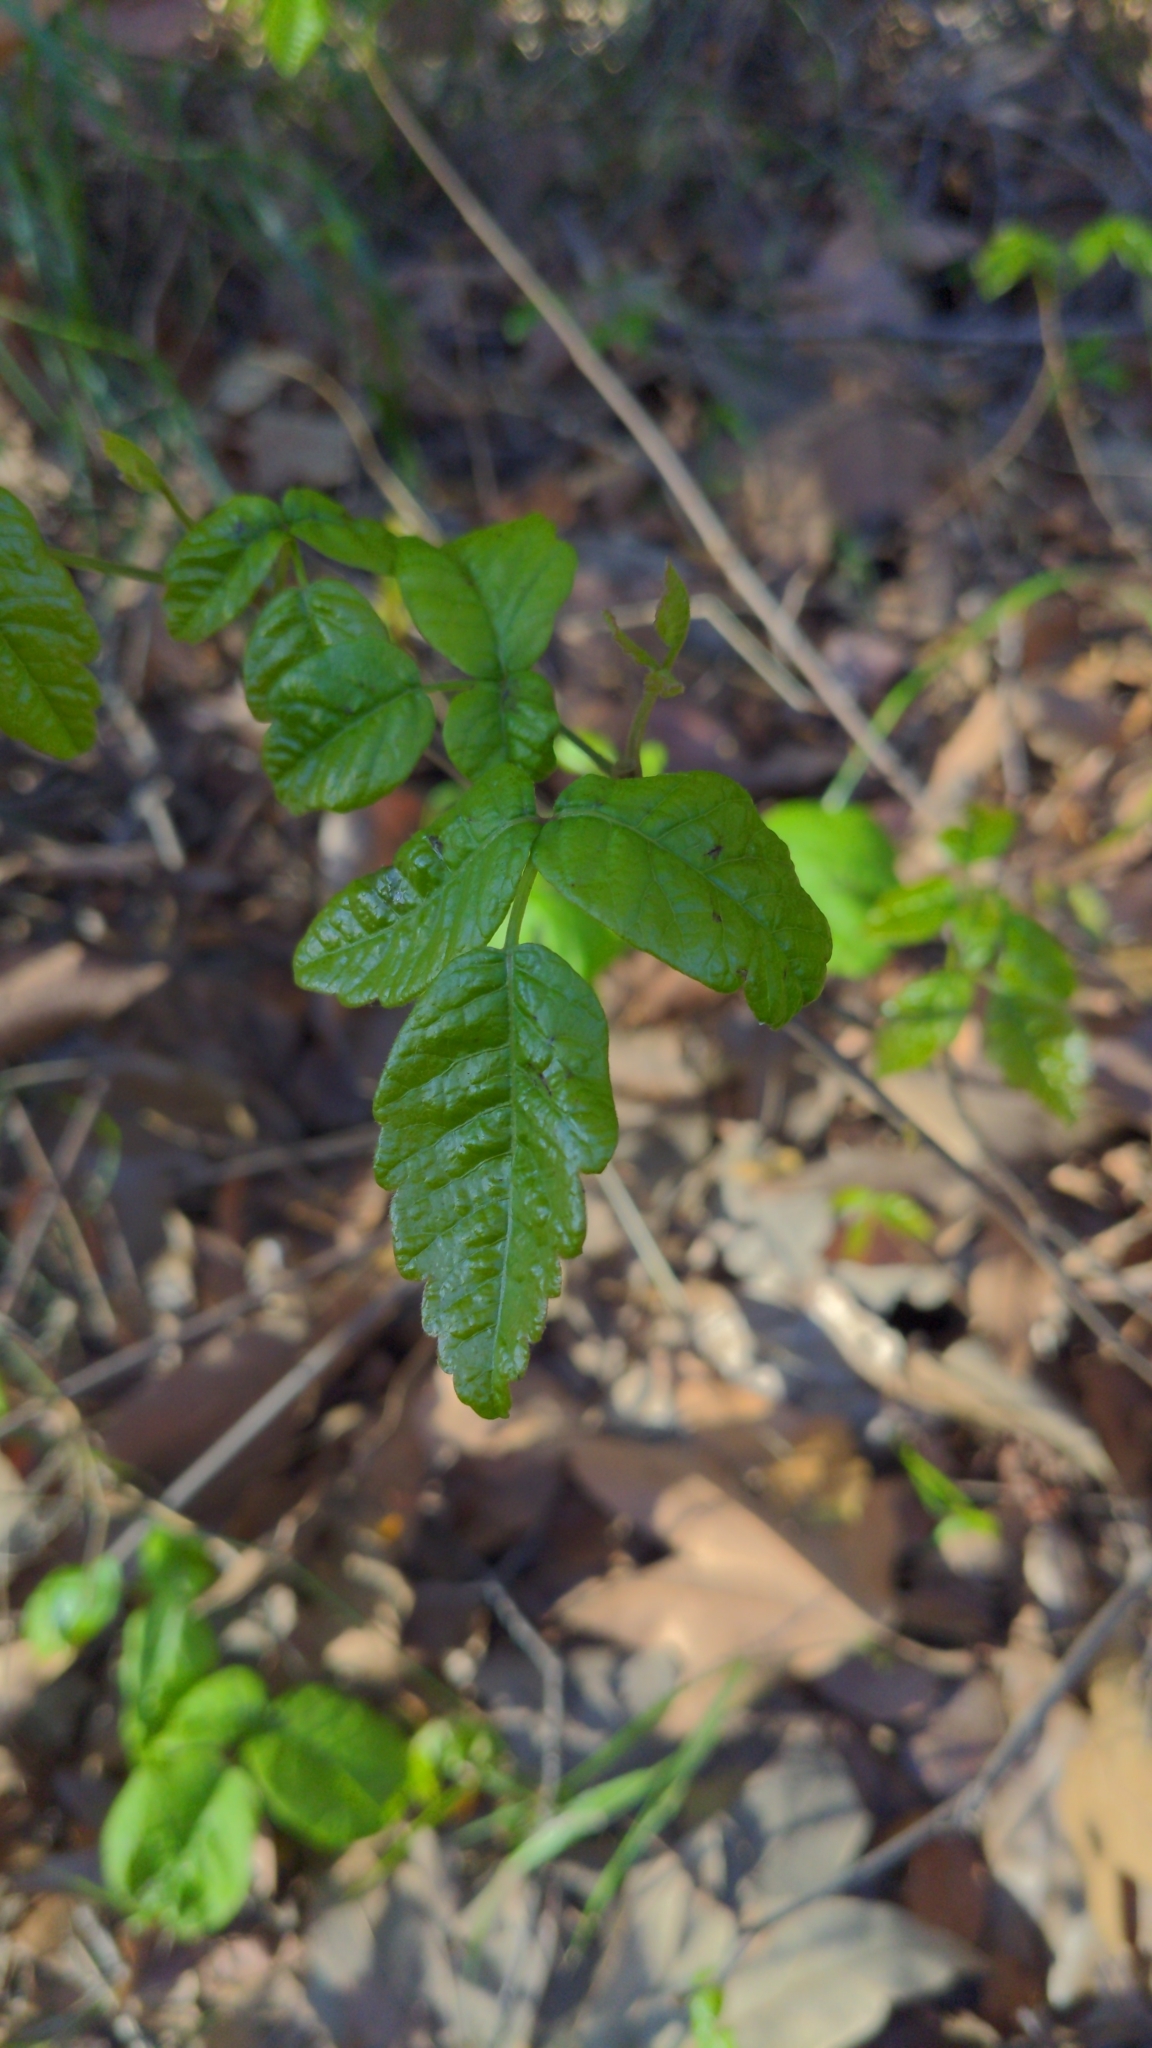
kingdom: Plantae
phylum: Tracheophyta
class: Magnoliopsida
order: Sapindales
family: Anacardiaceae
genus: Toxicodendron
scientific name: Toxicodendron diversilobum
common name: Pacific poison-oak
